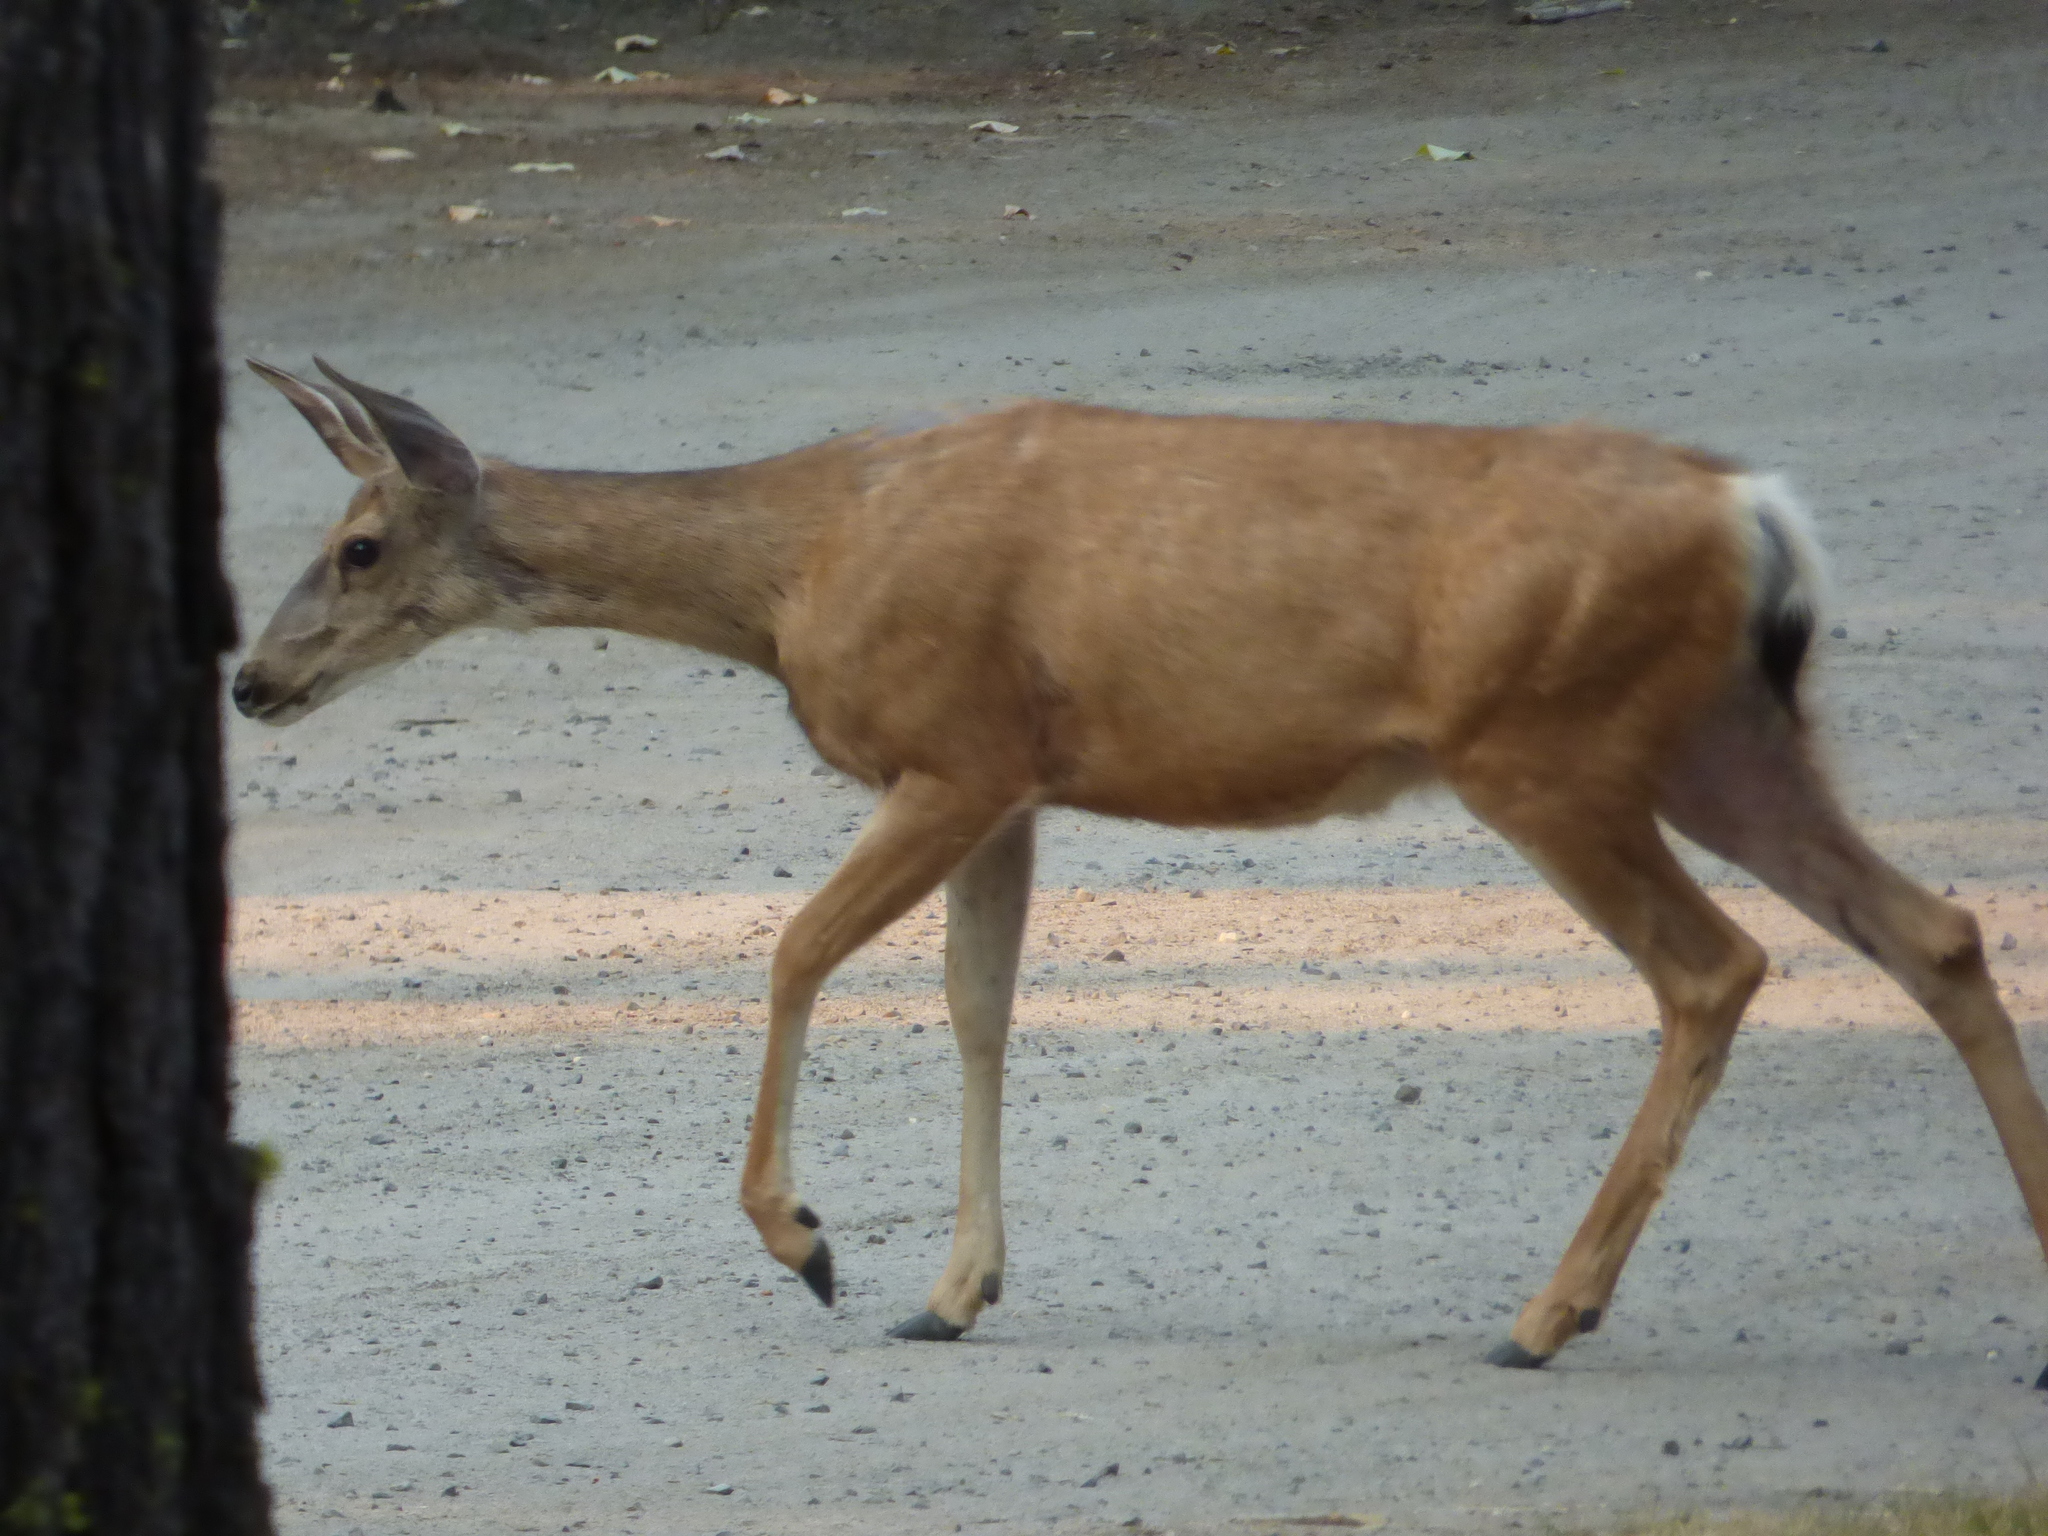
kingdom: Animalia
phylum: Chordata
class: Mammalia
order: Artiodactyla
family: Cervidae
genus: Odocoileus
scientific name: Odocoileus hemionus
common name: Mule deer
